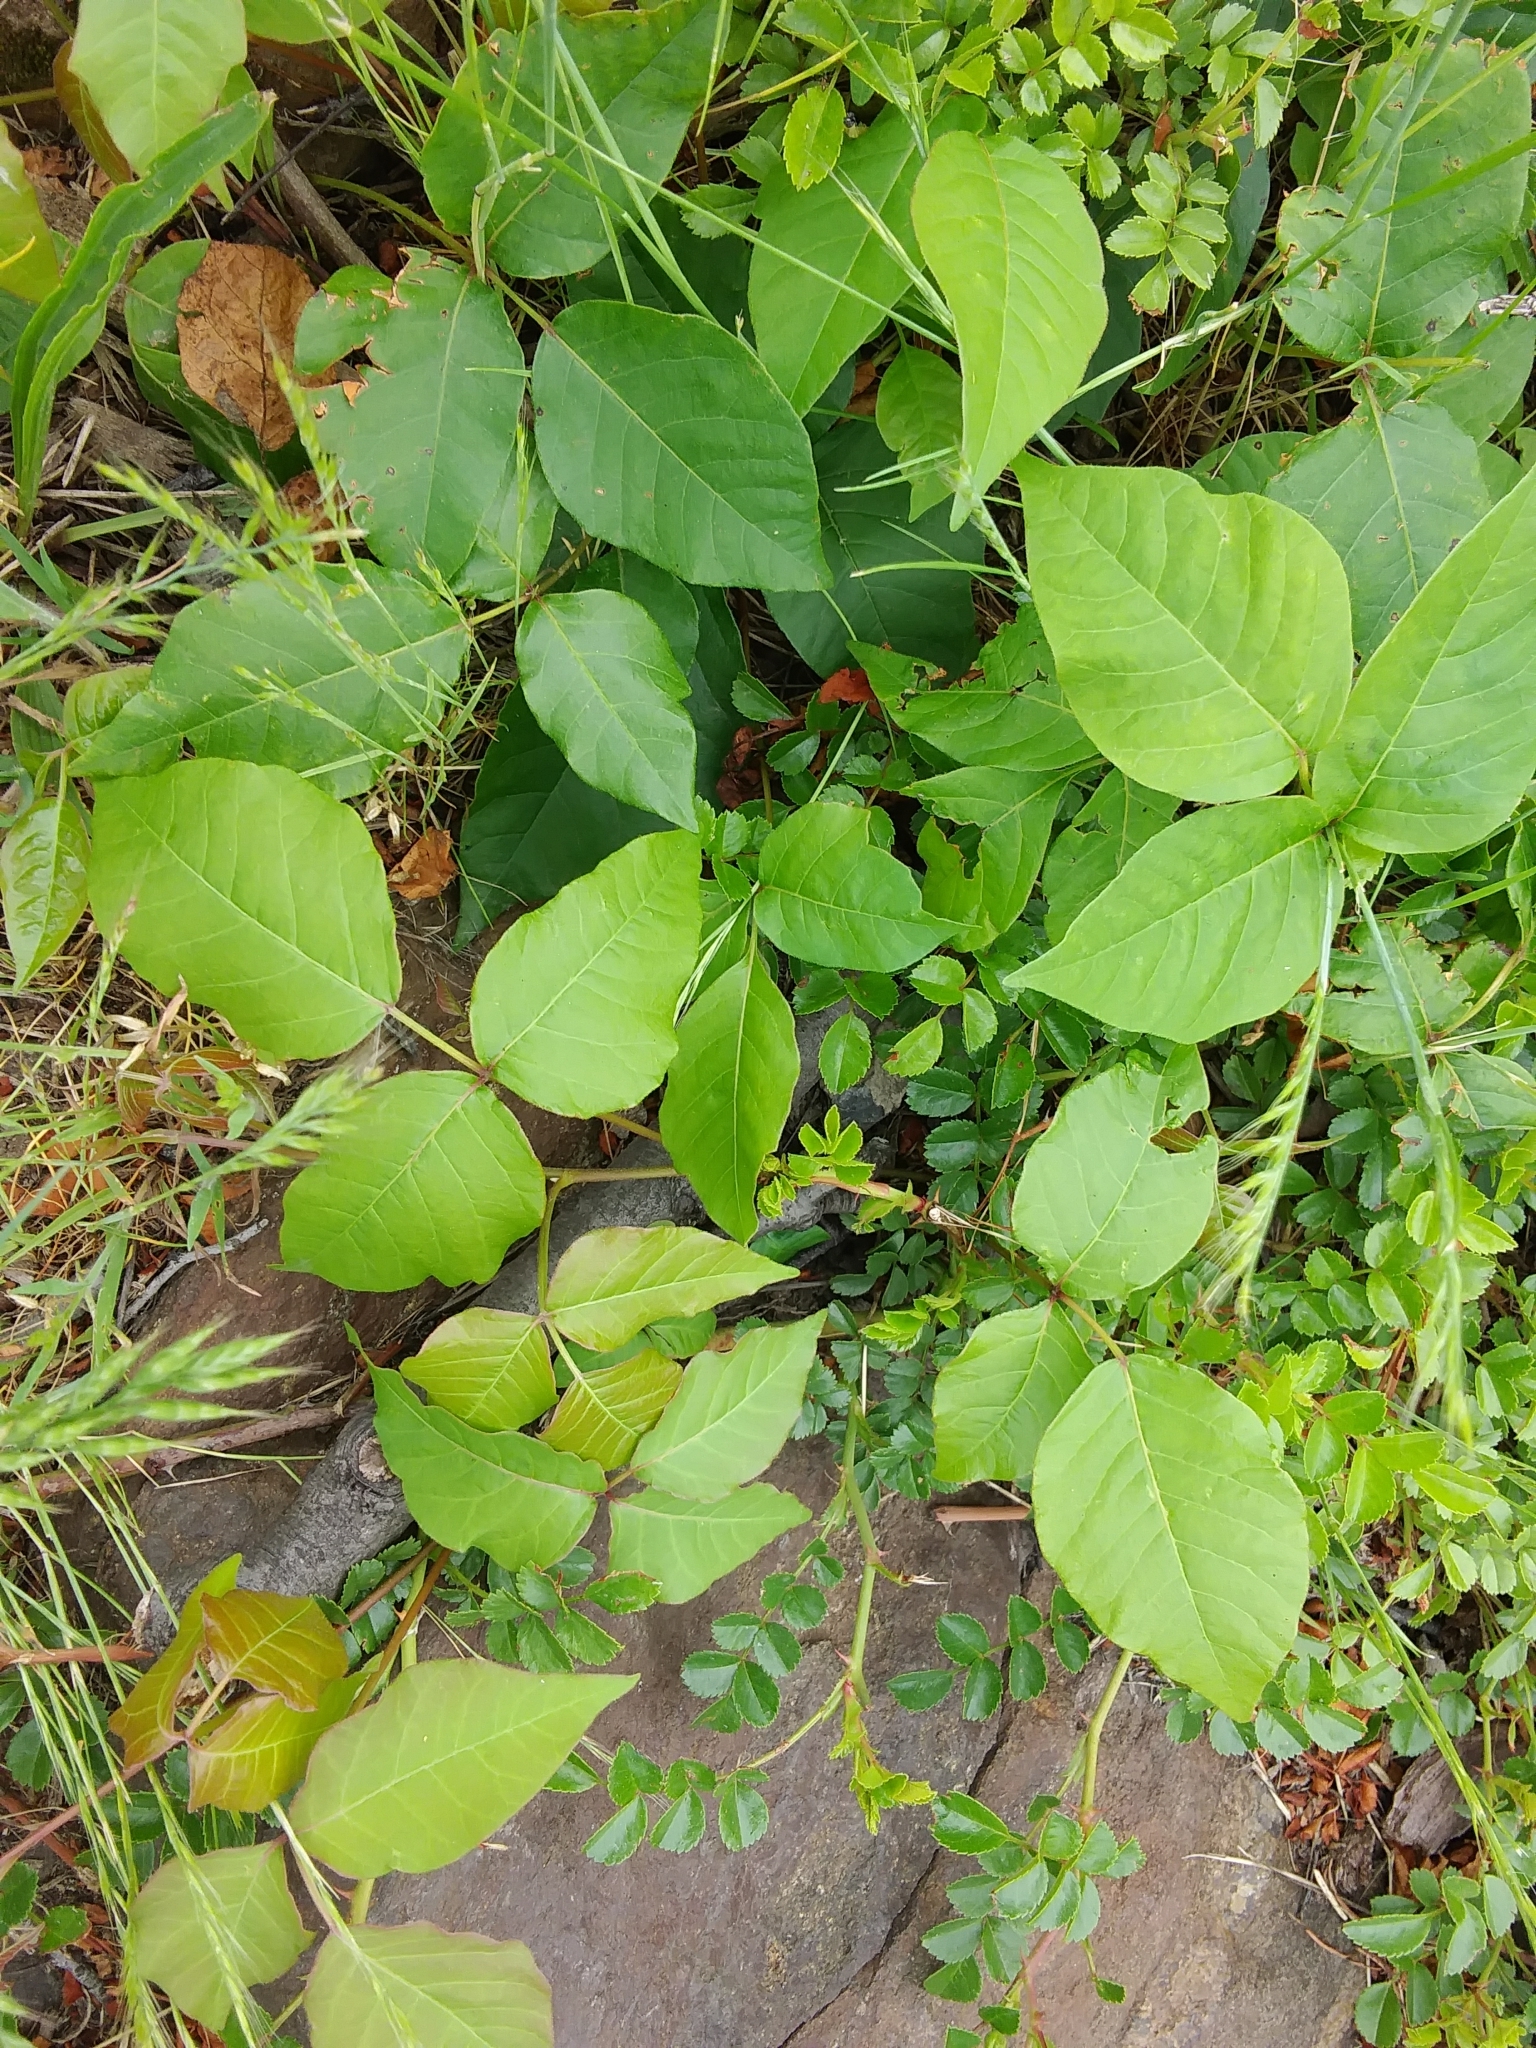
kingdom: Plantae
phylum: Tracheophyta
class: Magnoliopsida
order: Sapindales
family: Anacardiaceae
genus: Toxicodendron
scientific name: Toxicodendron radicans
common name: Poison ivy
